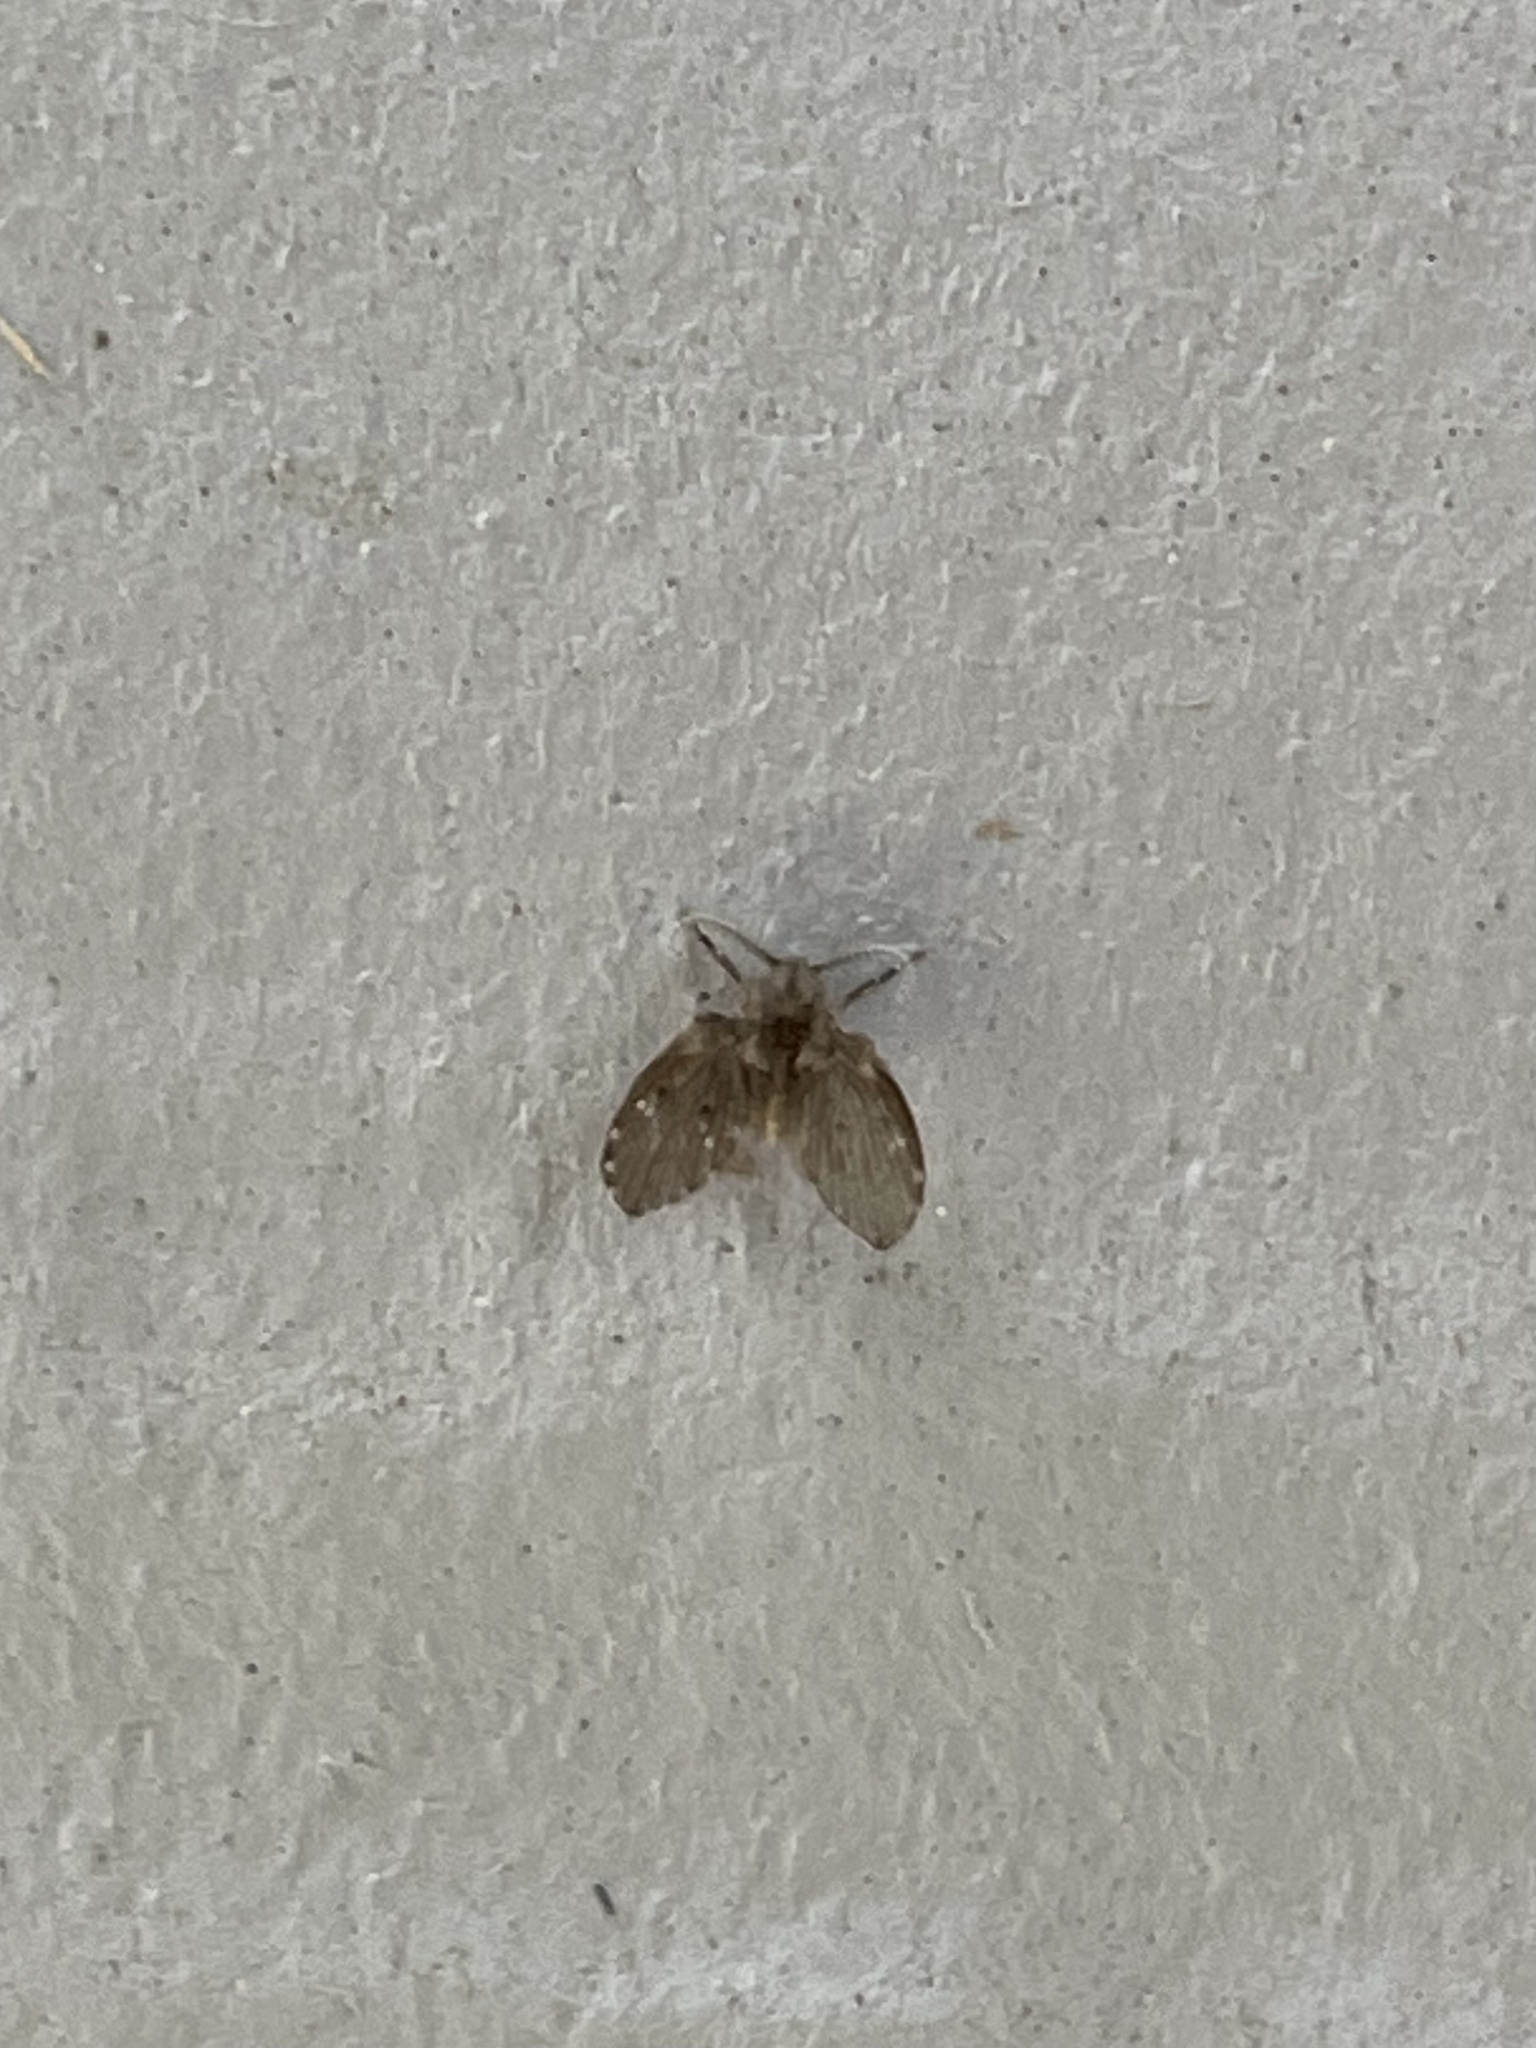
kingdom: Animalia
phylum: Arthropoda
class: Insecta
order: Diptera
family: Psychodidae
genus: Clogmia
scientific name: Clogmia albipunctatus
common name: White-spotted moth fly
